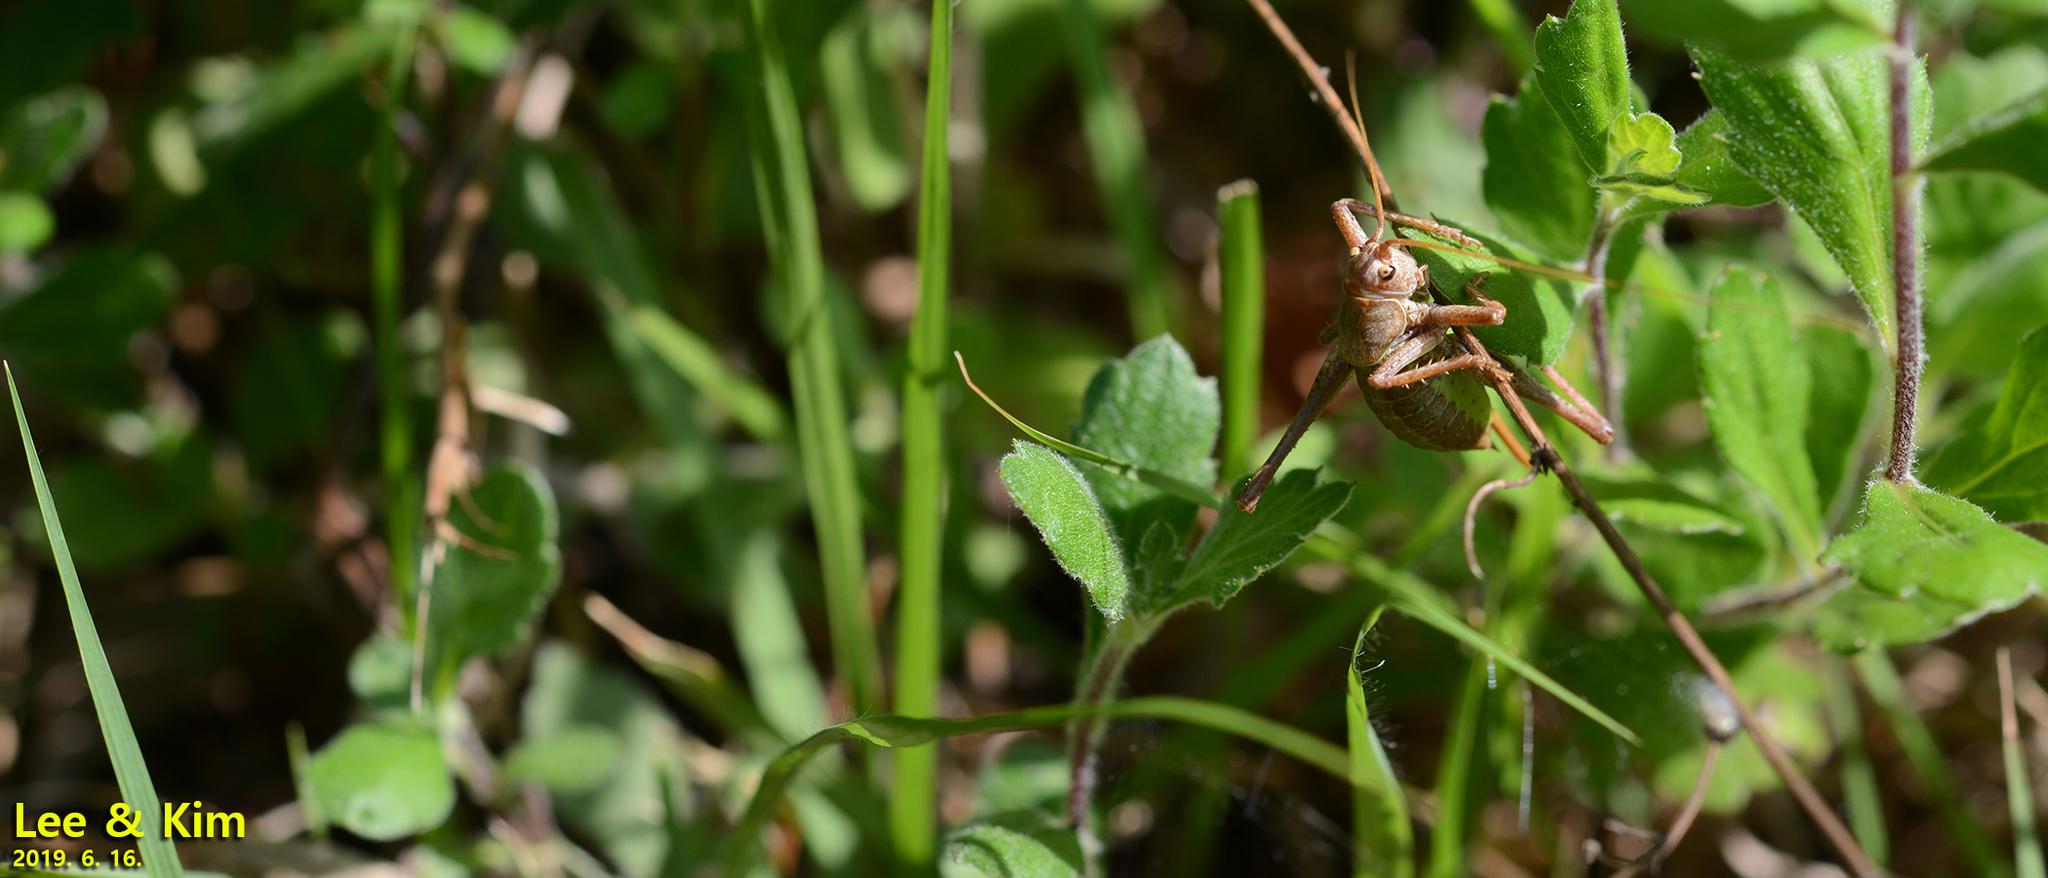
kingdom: Animalia
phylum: Arthropoda
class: Insecta
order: Orthoptera
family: Tettigoniidae
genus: Paratlanticus
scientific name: Paratlanticus ussuriensis
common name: Ussur brown katydid
